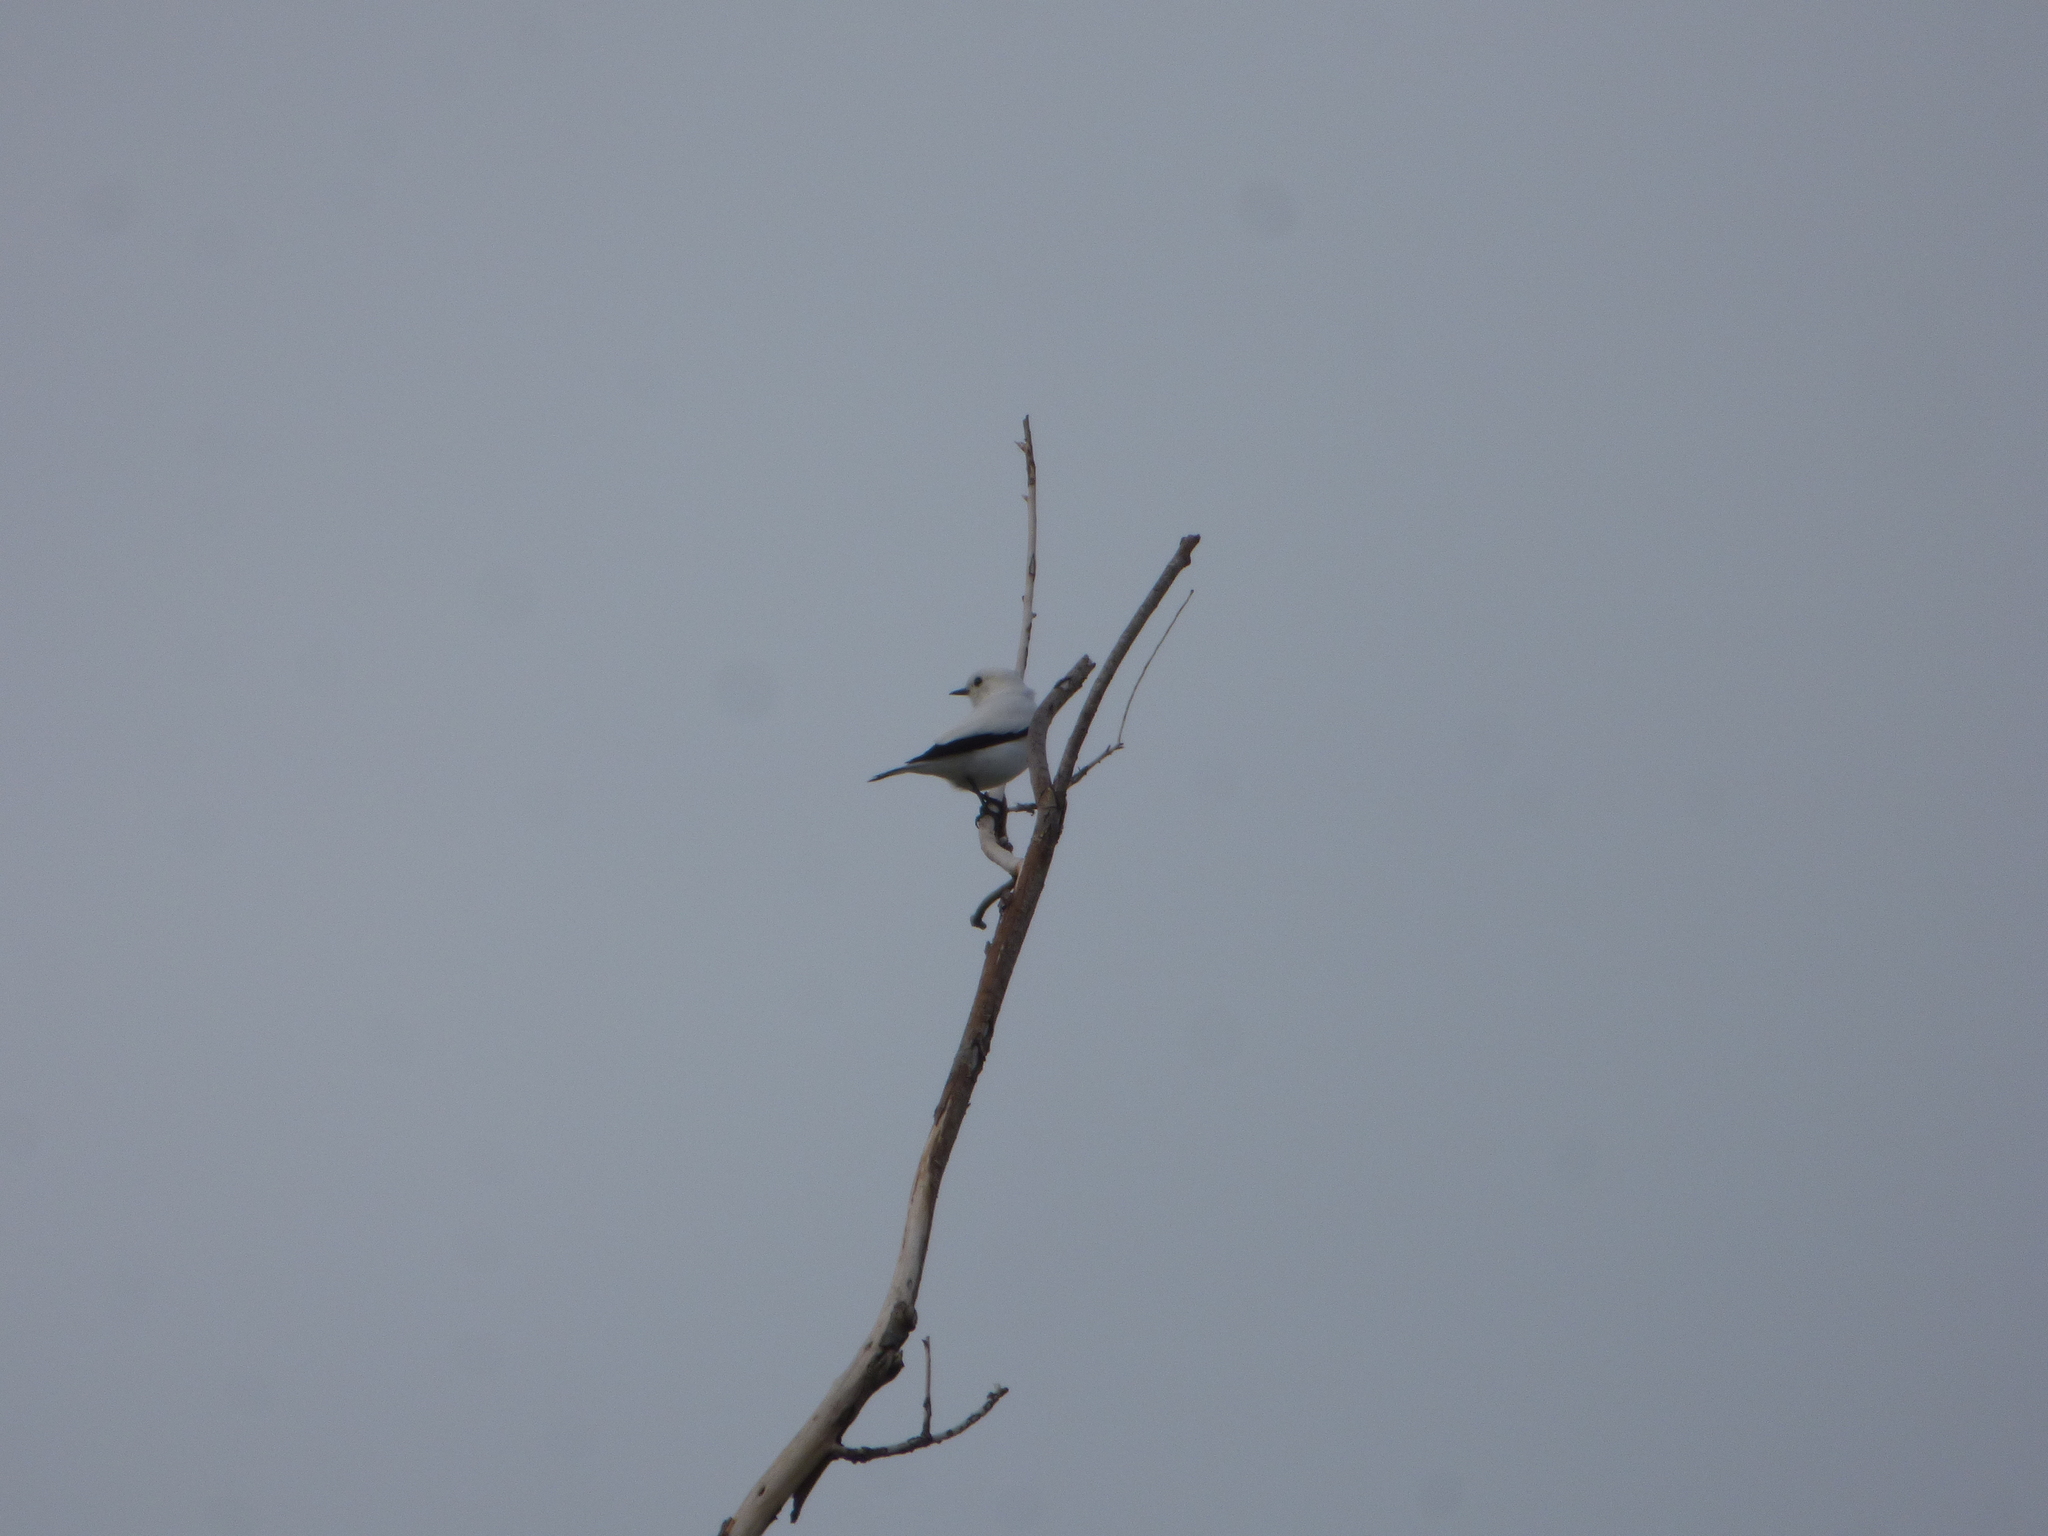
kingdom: Animalia
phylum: Chordata
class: Aves
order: Passeriformes
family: Tyrannidae
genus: Xolmis
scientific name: Xolmis irupero
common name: White monjita
